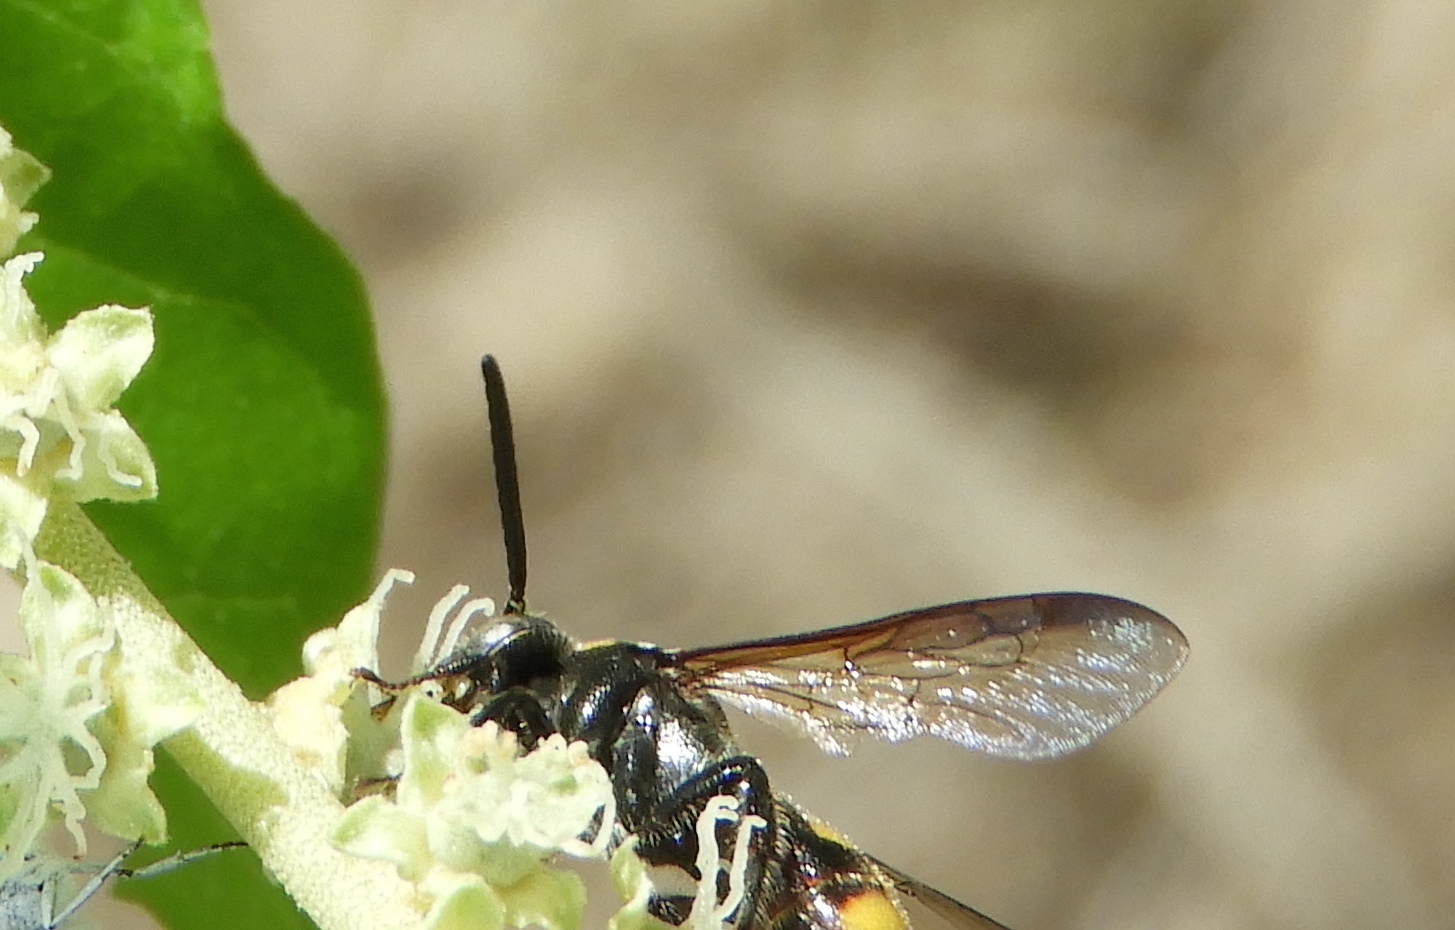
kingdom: Animalia
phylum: Arthropoda
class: Insecta
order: Hymenoptera
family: Scoliidae
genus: Scolia
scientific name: Scolia nobilitata
